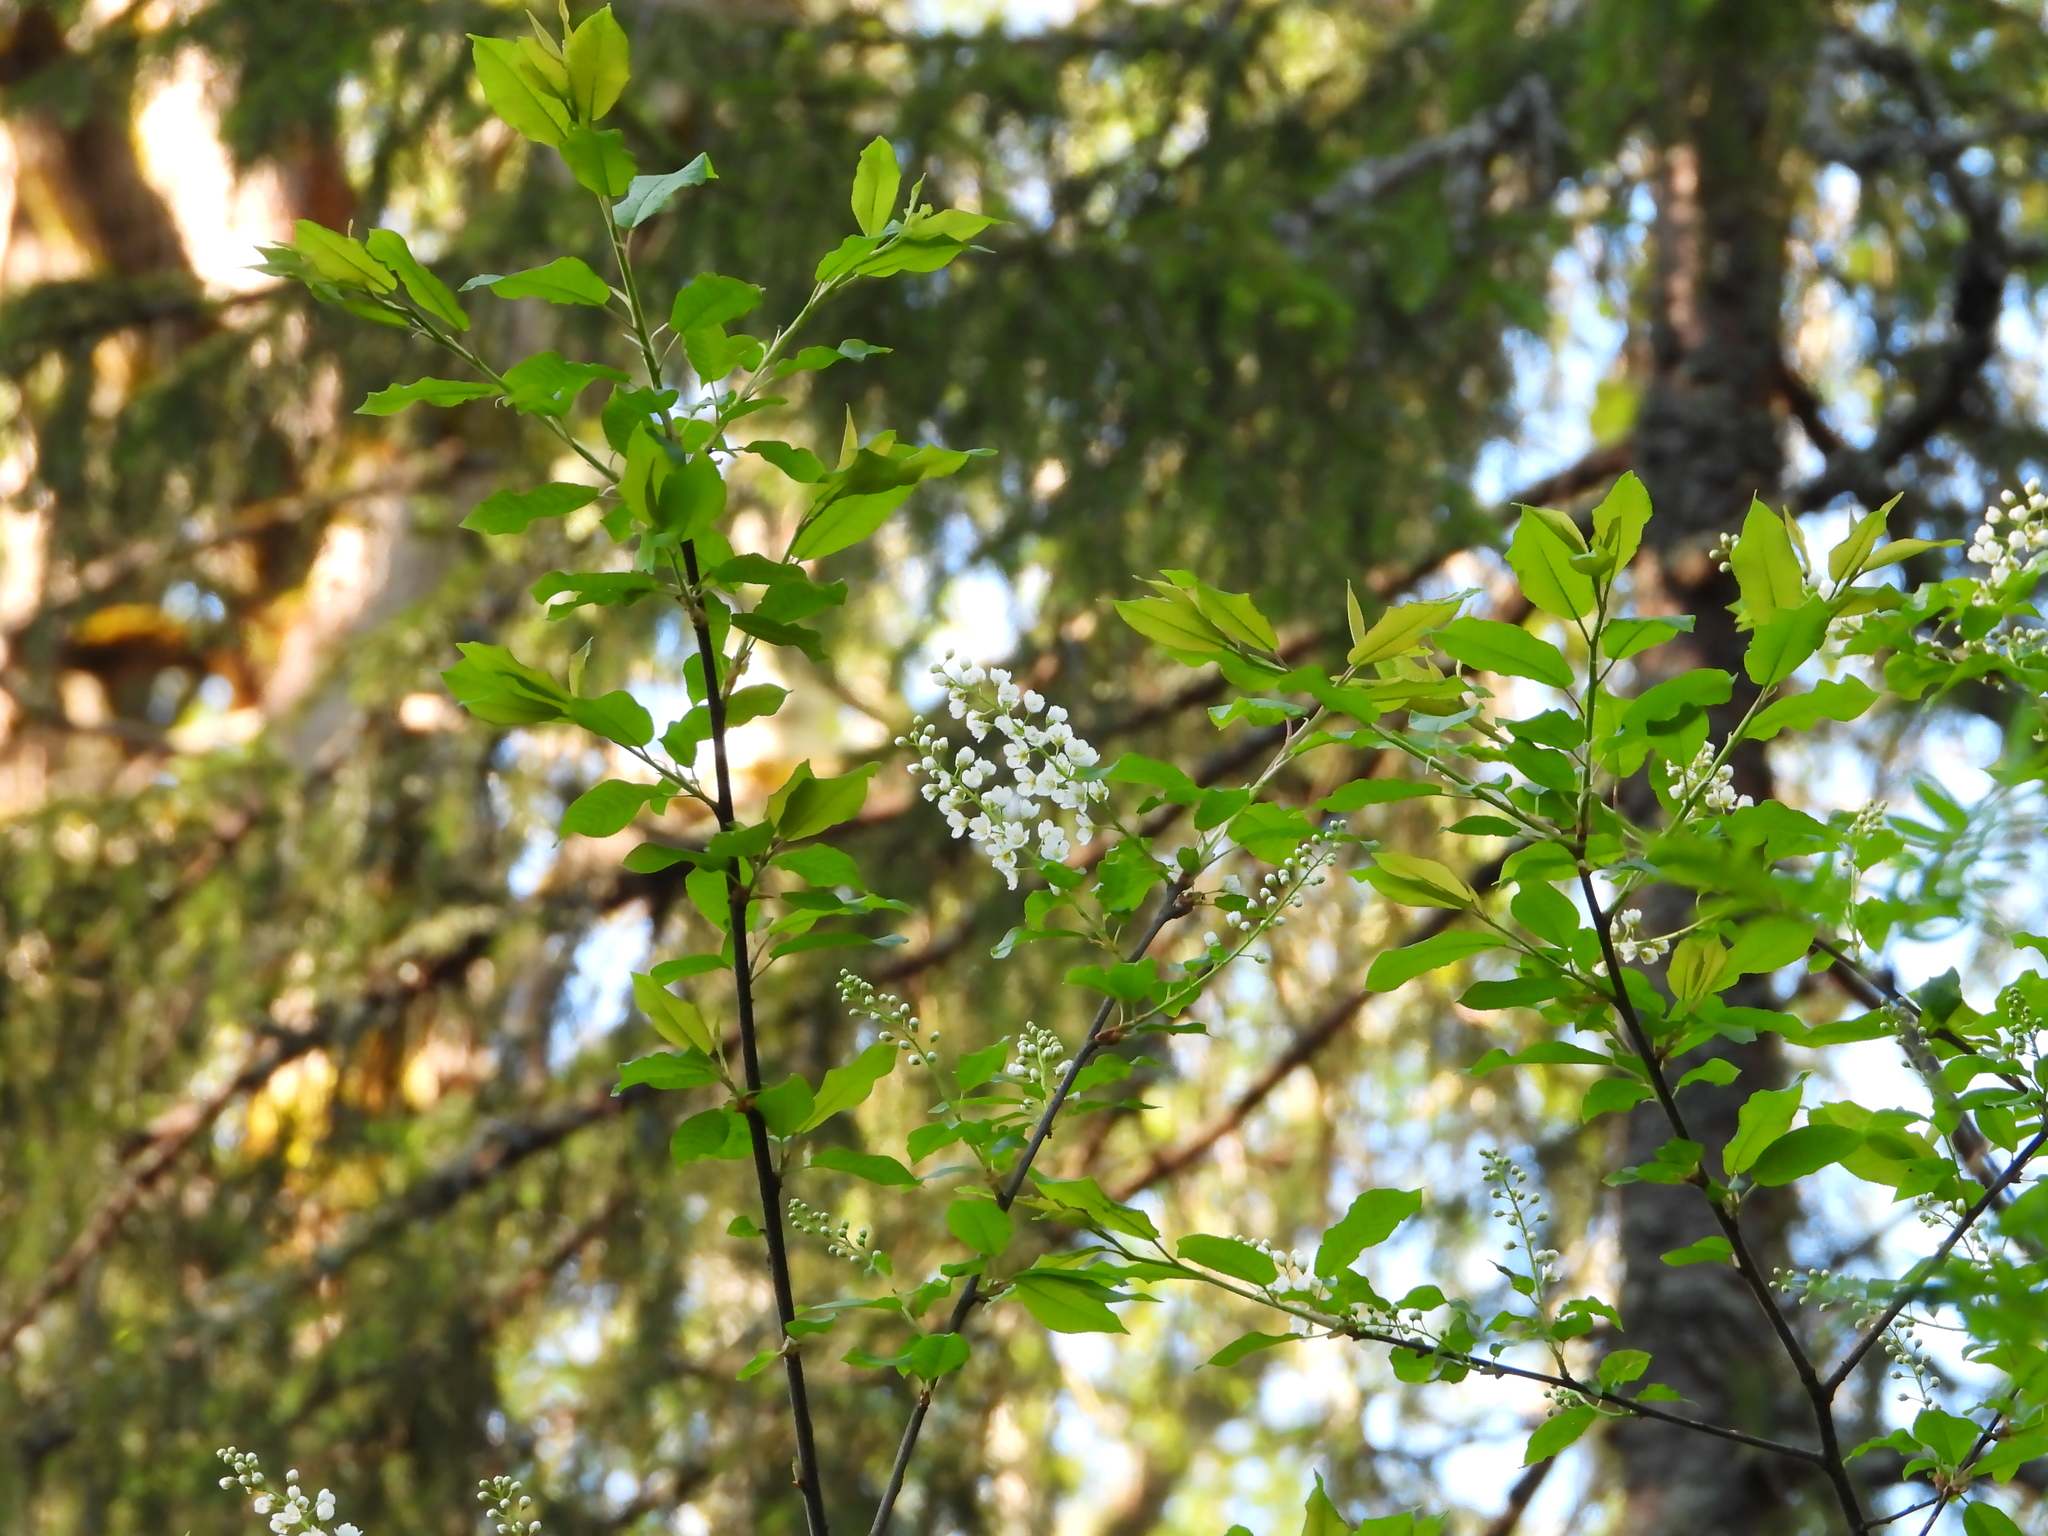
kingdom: Plantae
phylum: Tracheophyta
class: Magnoliopsida
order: Rosales
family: Rosaceae
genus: Prunus
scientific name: Prunus padus
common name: Bird cherry
